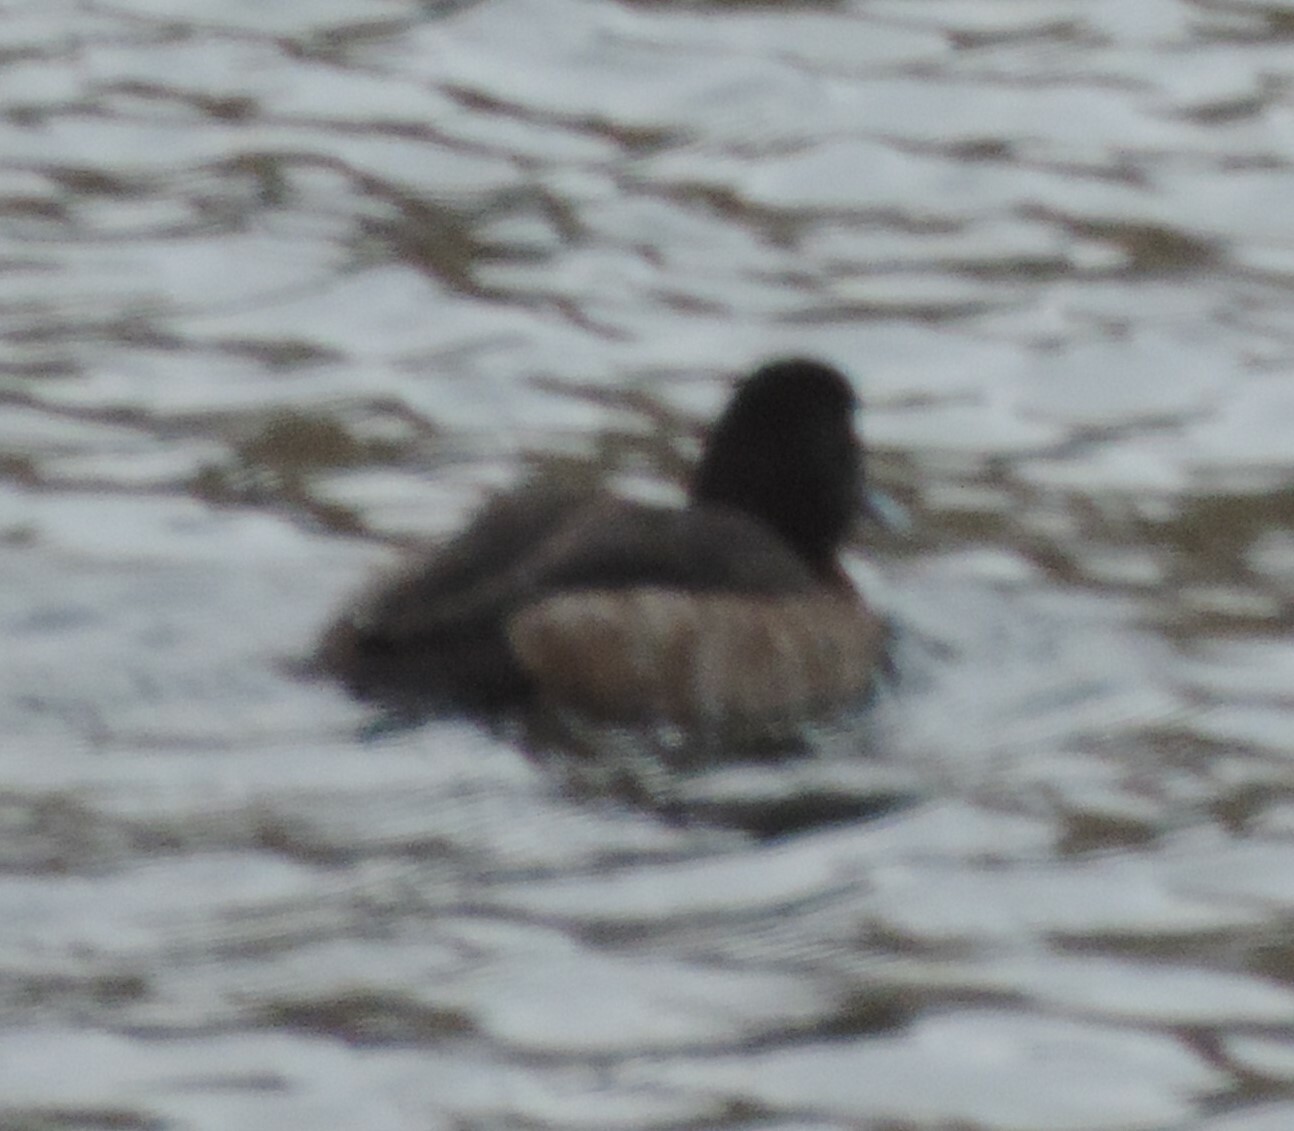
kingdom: Animalia
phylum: Chordata
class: Aves
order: Anseriformes
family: Anatidae
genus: Aythya
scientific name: Aythya marila
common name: Greater scaup
